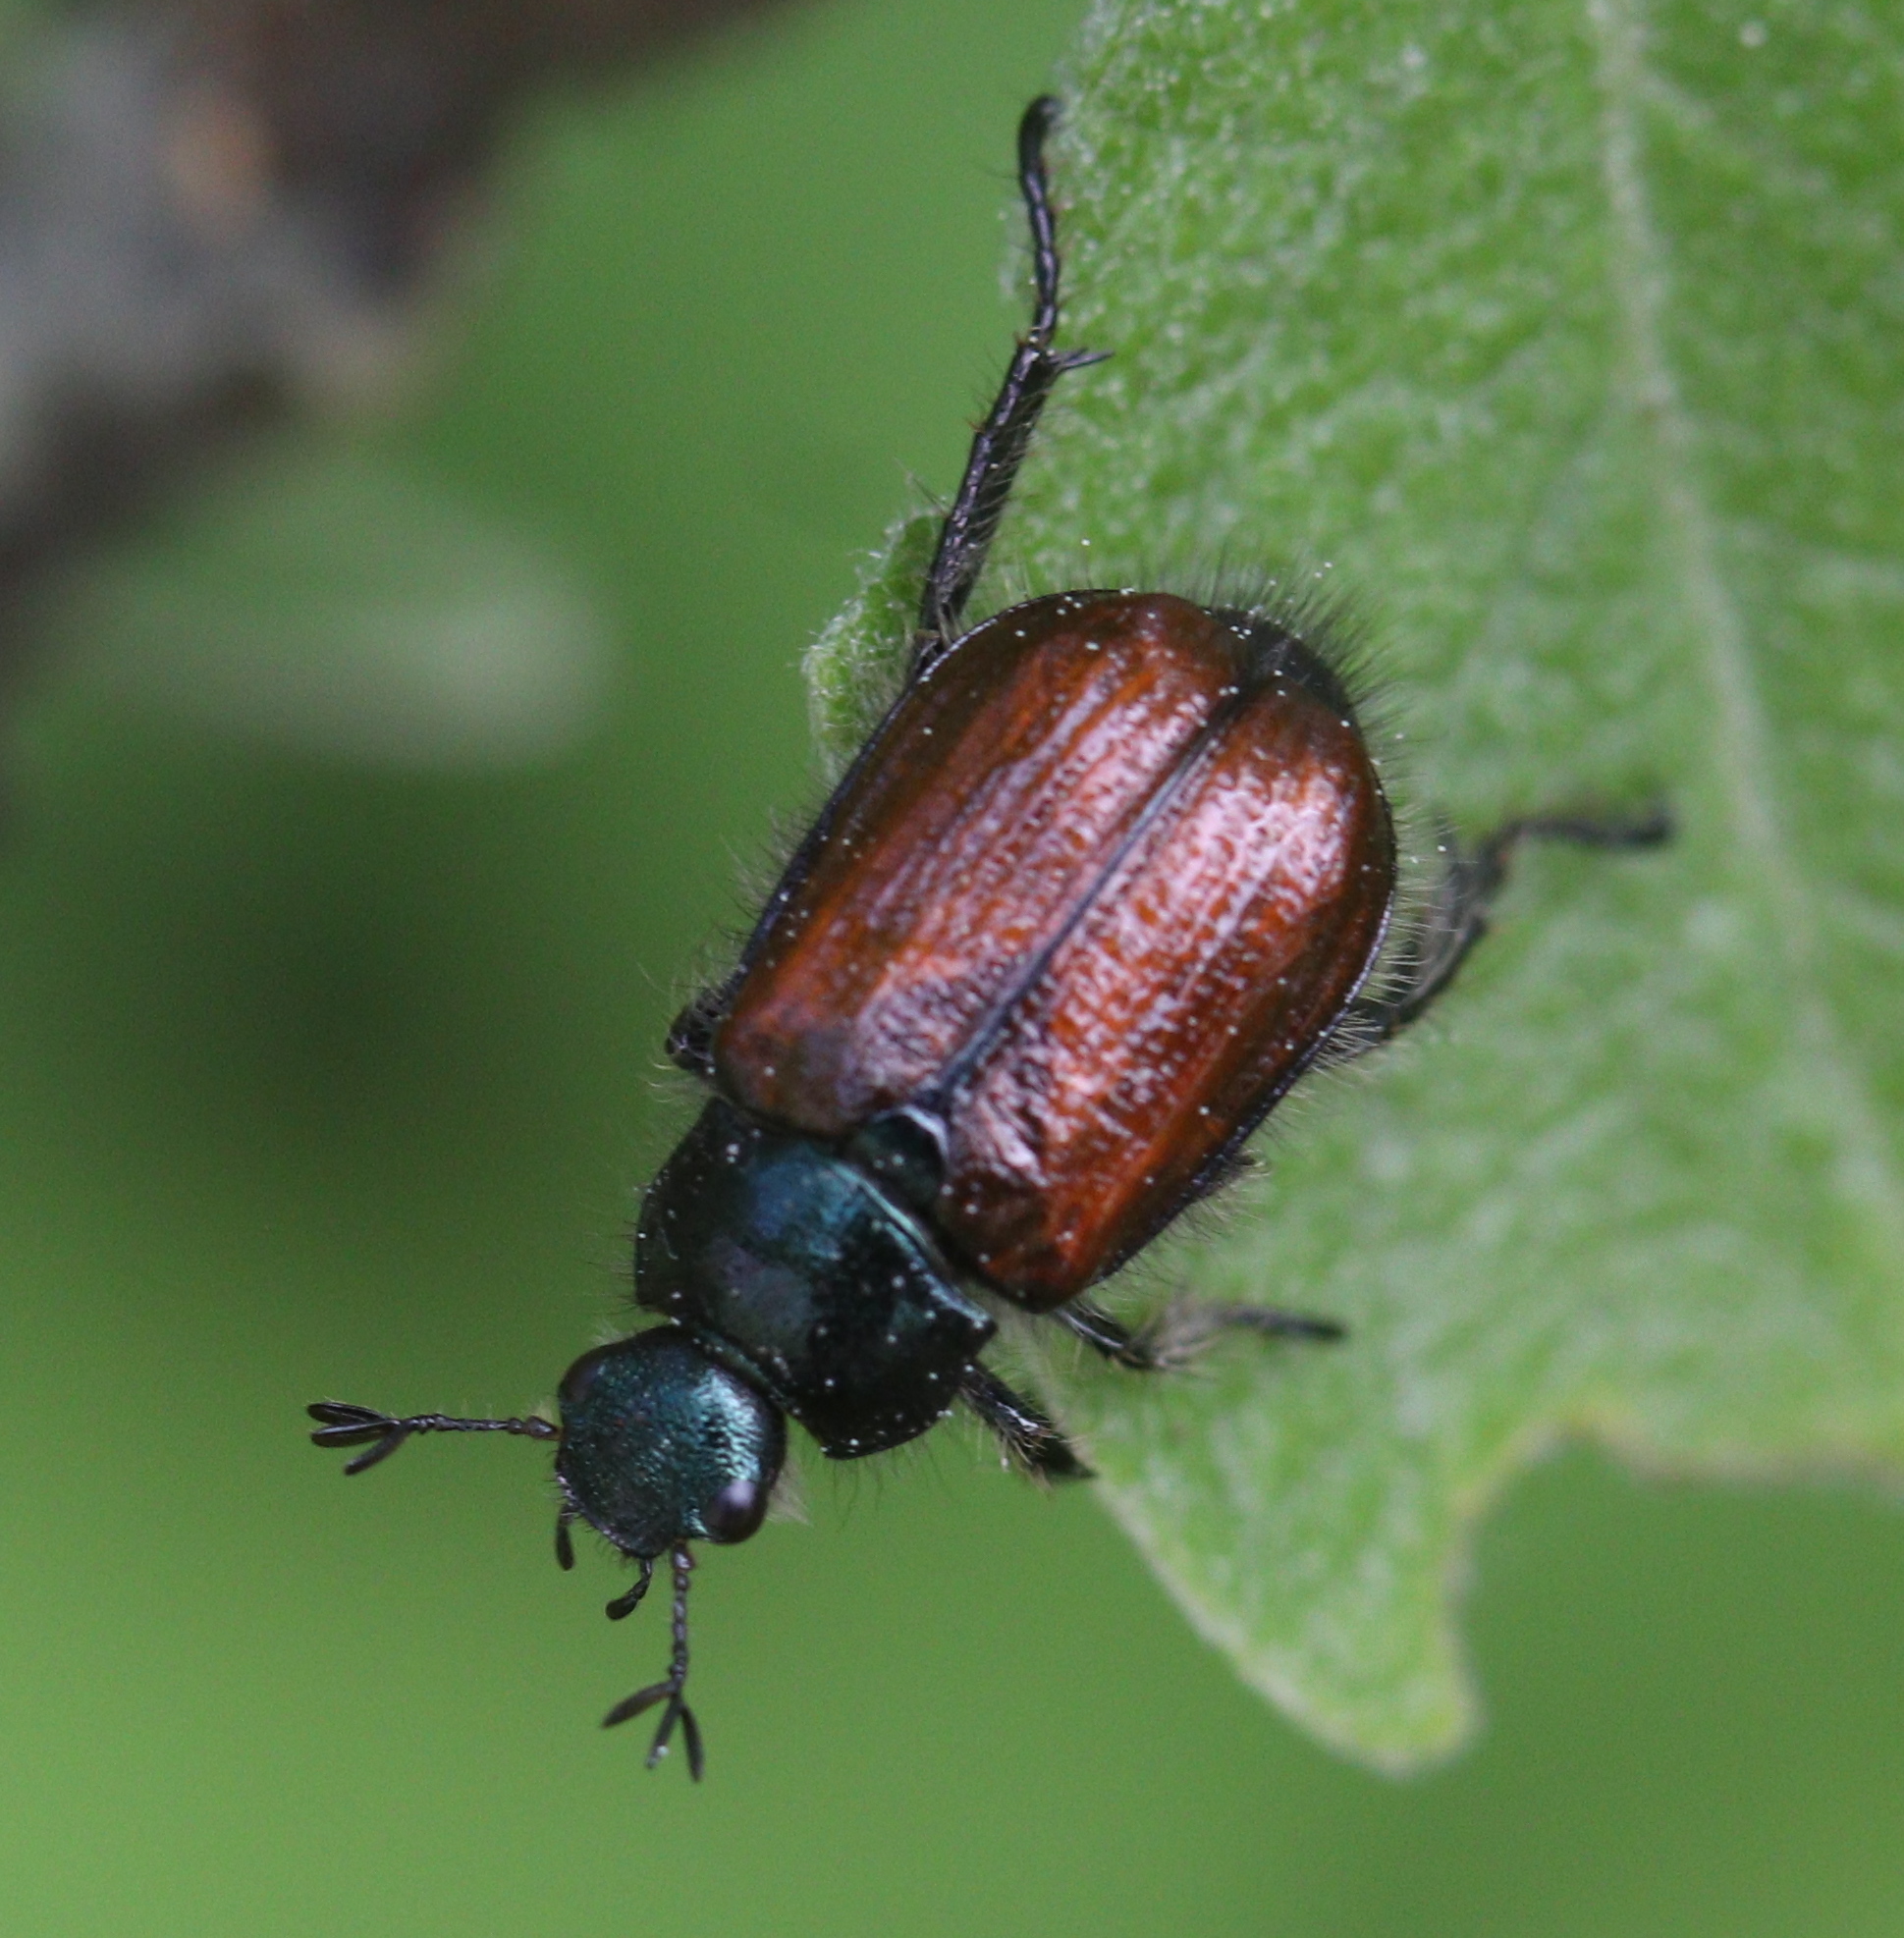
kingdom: Animalia
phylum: Arthropoda
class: Insecta
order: Coleoptera
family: Scarabaeidae
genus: Phyllopertha
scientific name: Phyllopertha horticola
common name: Garden chafer
